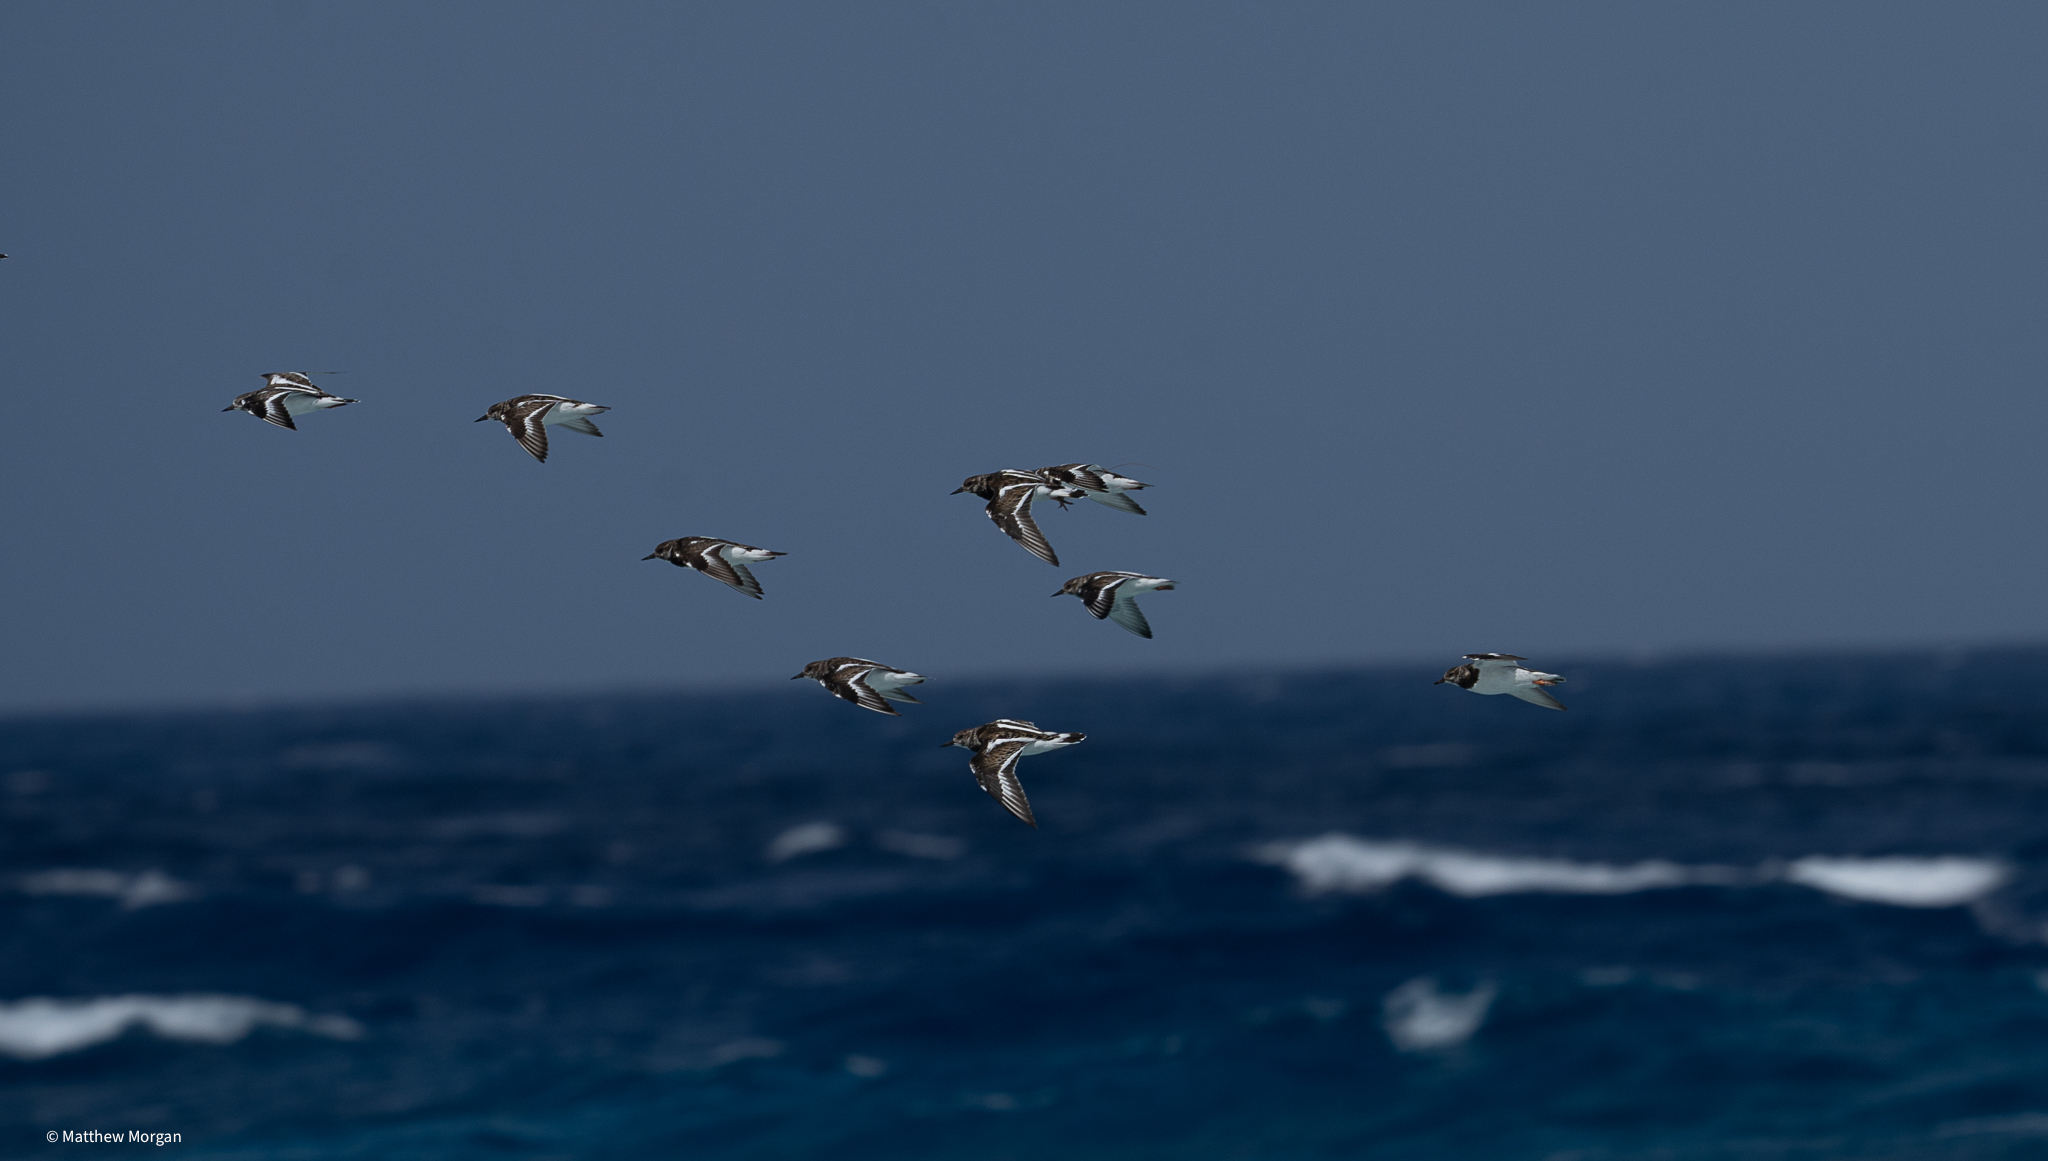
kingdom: Animalia
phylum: Chordata
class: Aves
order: Charadriiformes
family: Scolopacidae
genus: Arenaria
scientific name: Arenaria interpres
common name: Ruddy turnstone
